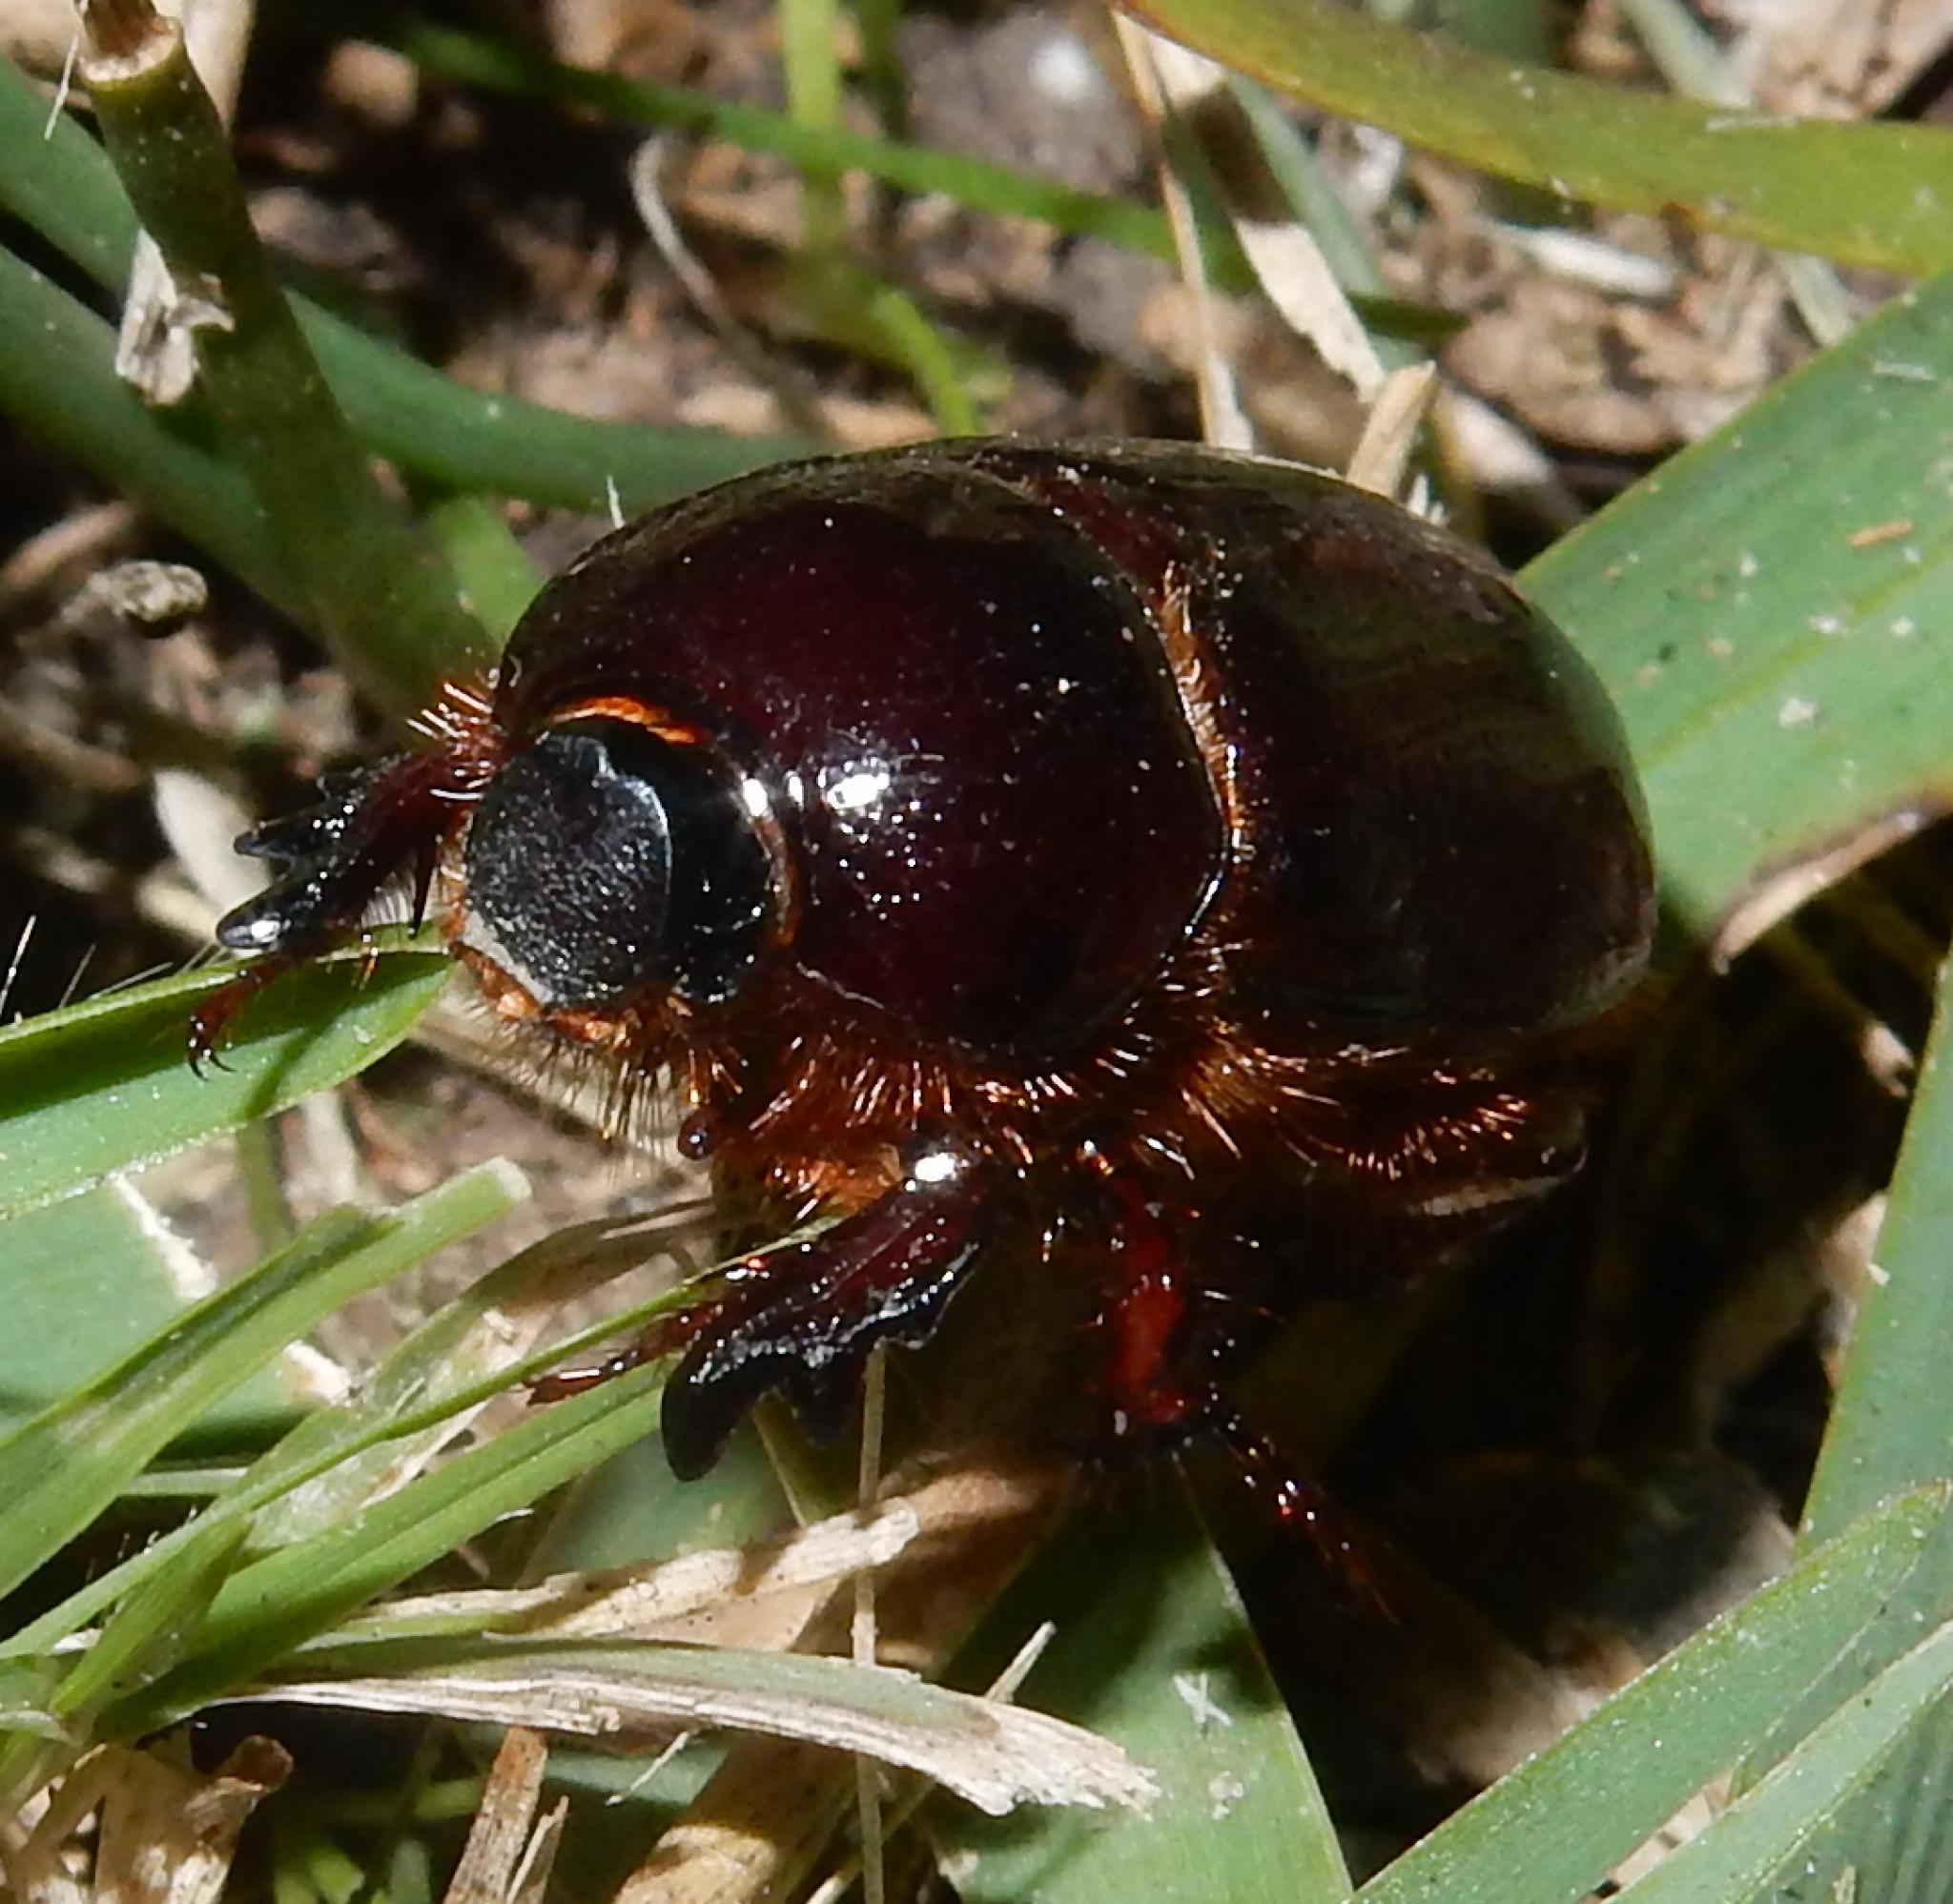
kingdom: Animalia
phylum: Arthropoda
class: Insecta
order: Coleoptera
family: Scarabaeidae
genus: Temnorhynchus
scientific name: Temnorhynchus retusus
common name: Plate-faced beetle
